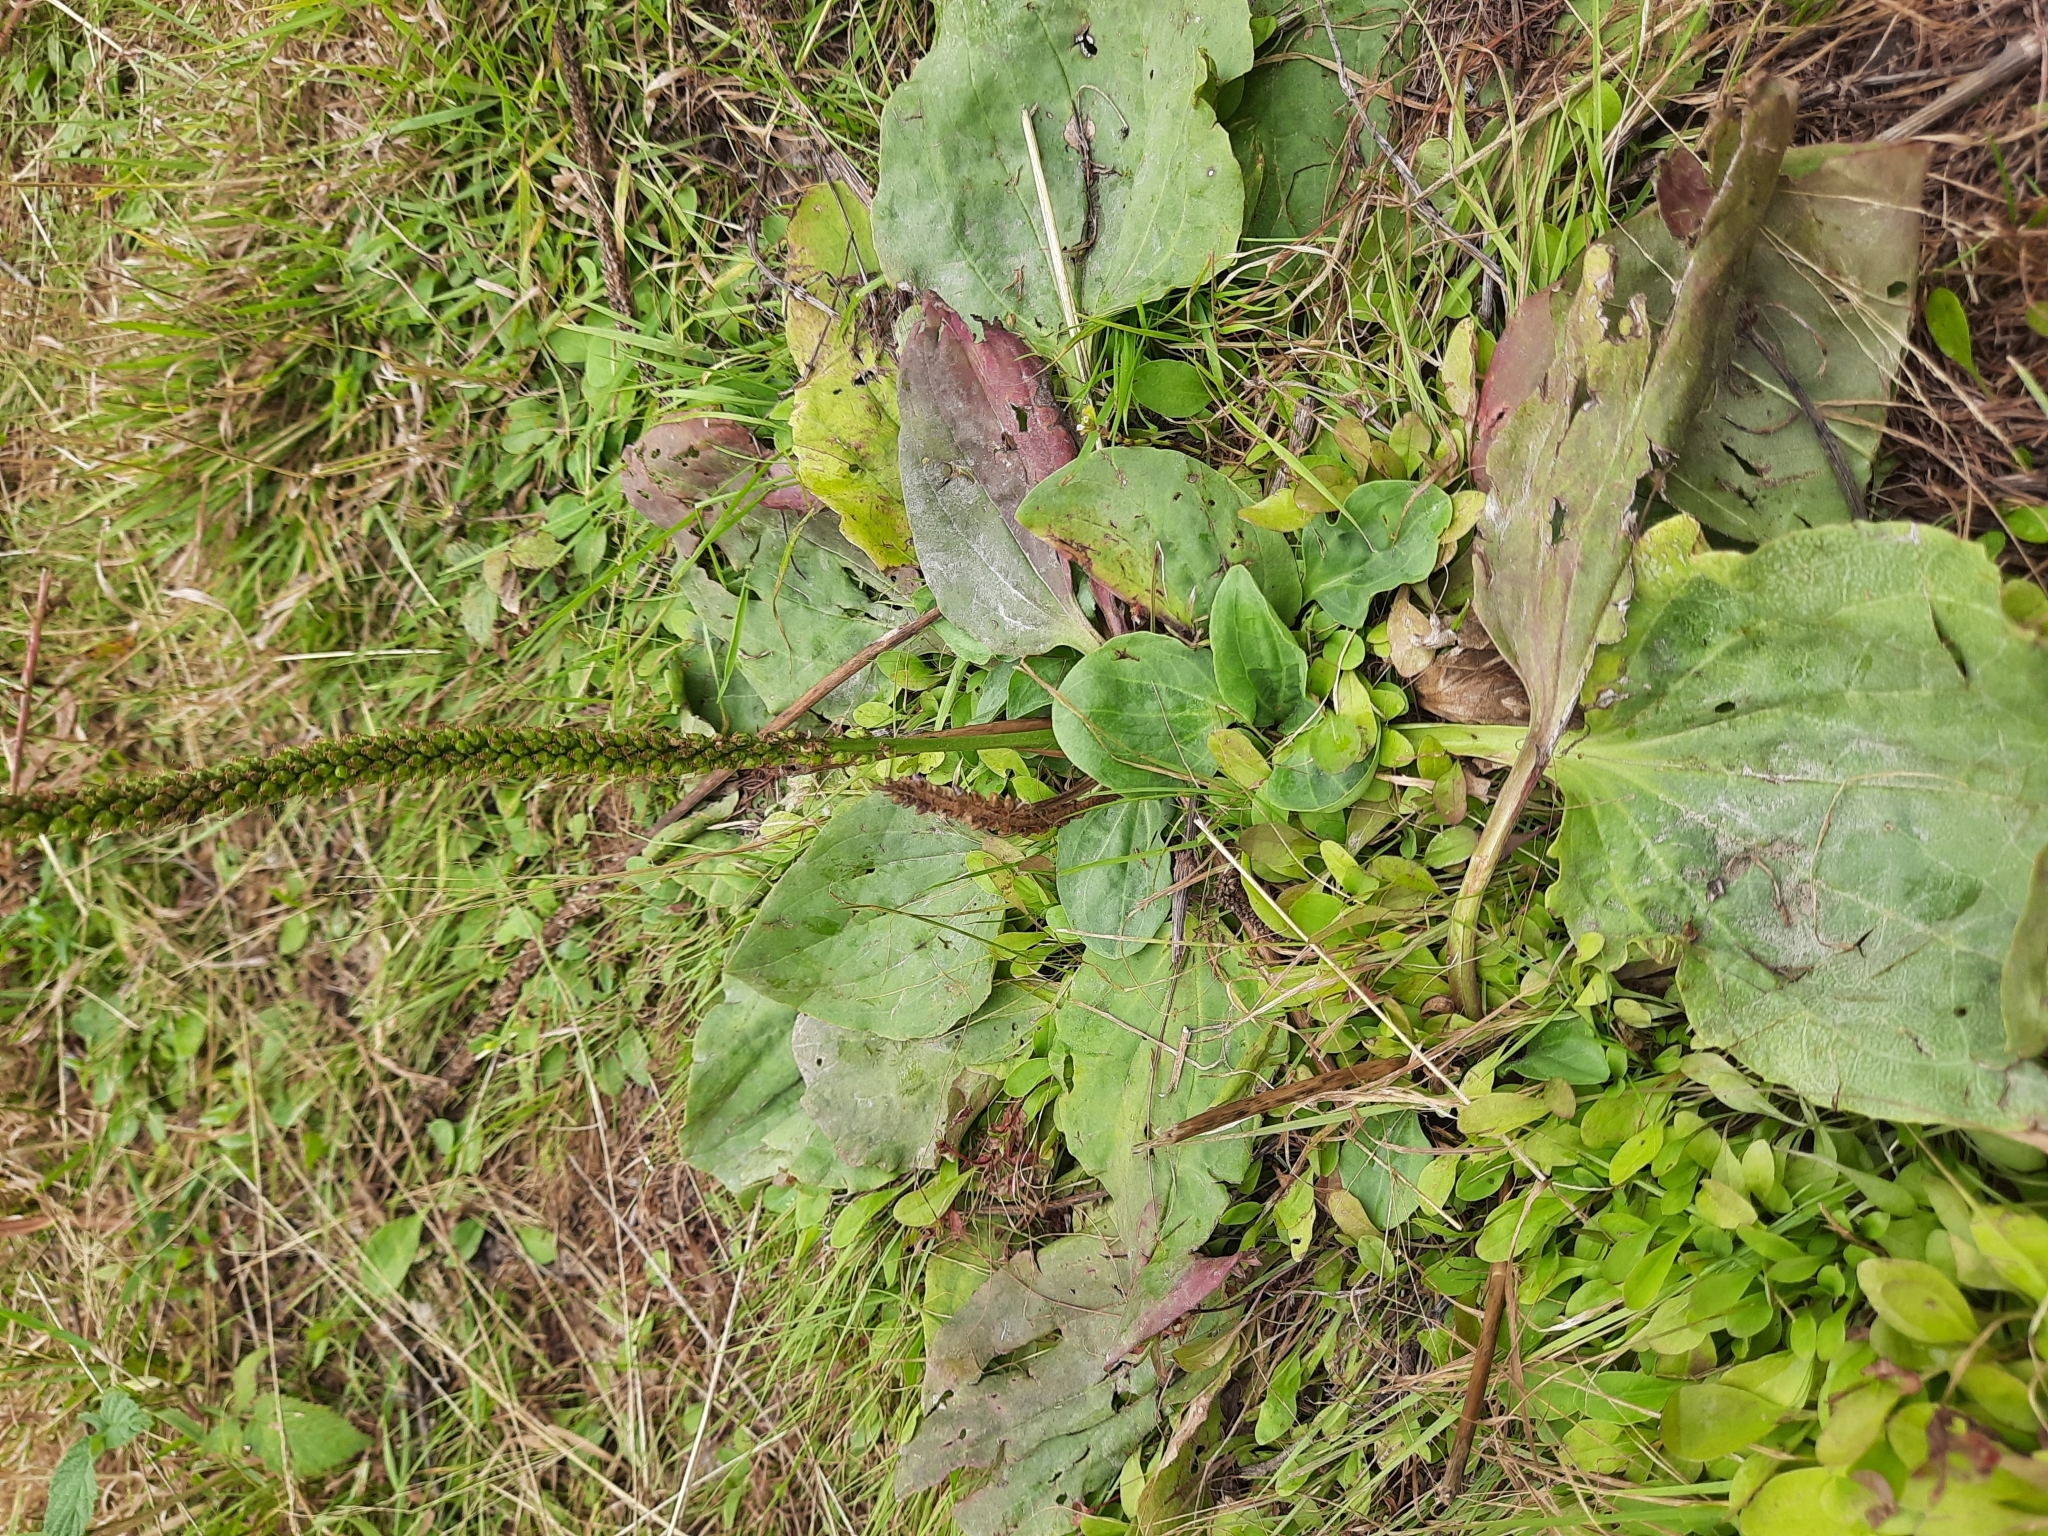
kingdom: Plantae
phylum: Tracheophyta
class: Magnoliopsida
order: Lamiales
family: Plantaginaceae
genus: Plantago
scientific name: Plantago major
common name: Common plantain
